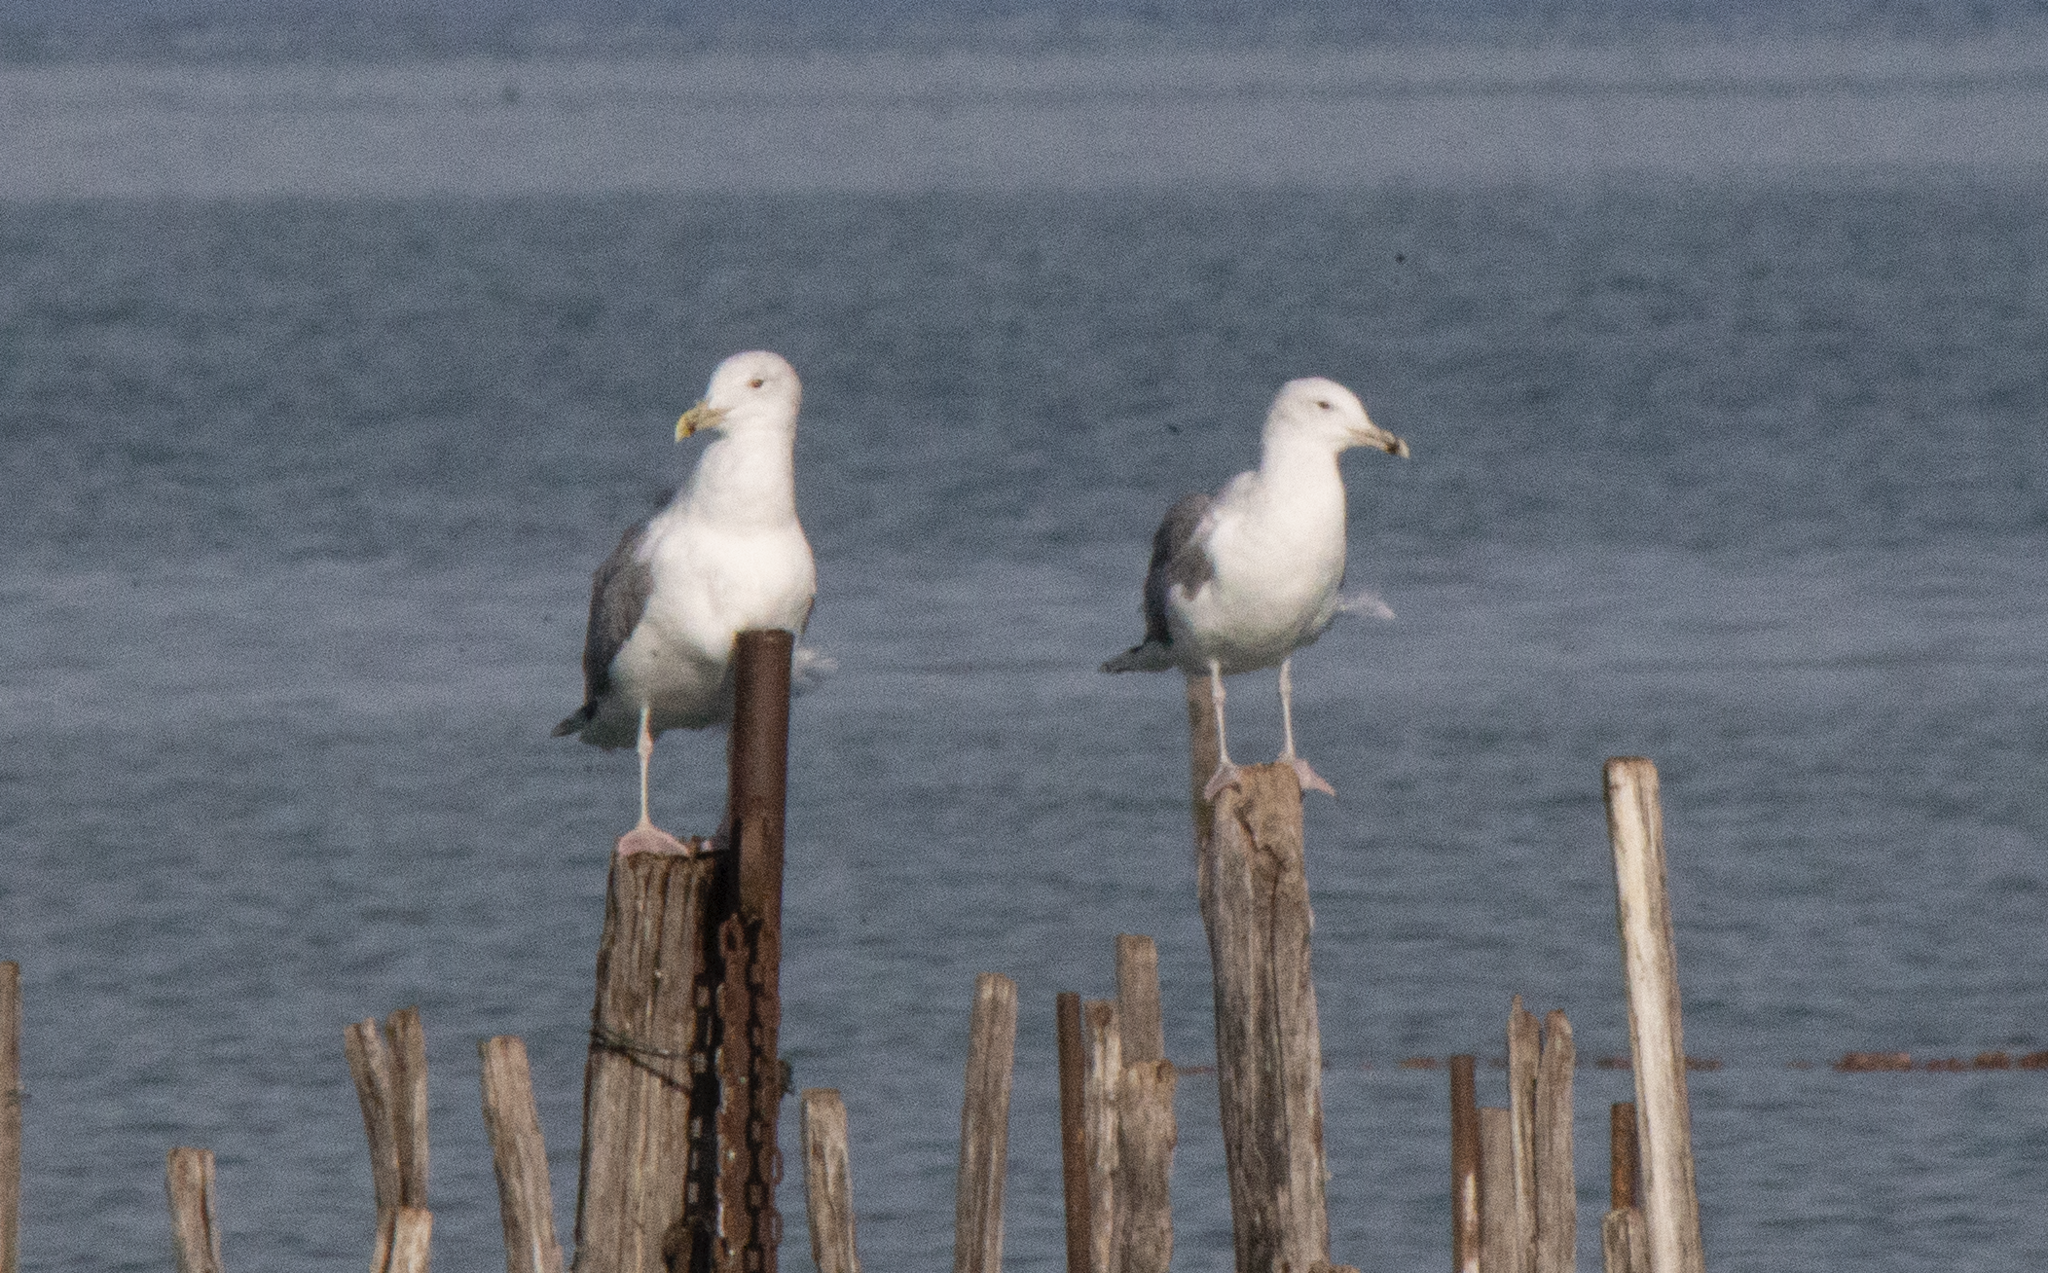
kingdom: Animalia
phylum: Chordata
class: Aves
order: Charadriiformes
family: Laridae
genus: Larus
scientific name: Larus cachinnans
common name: Caspian gull
